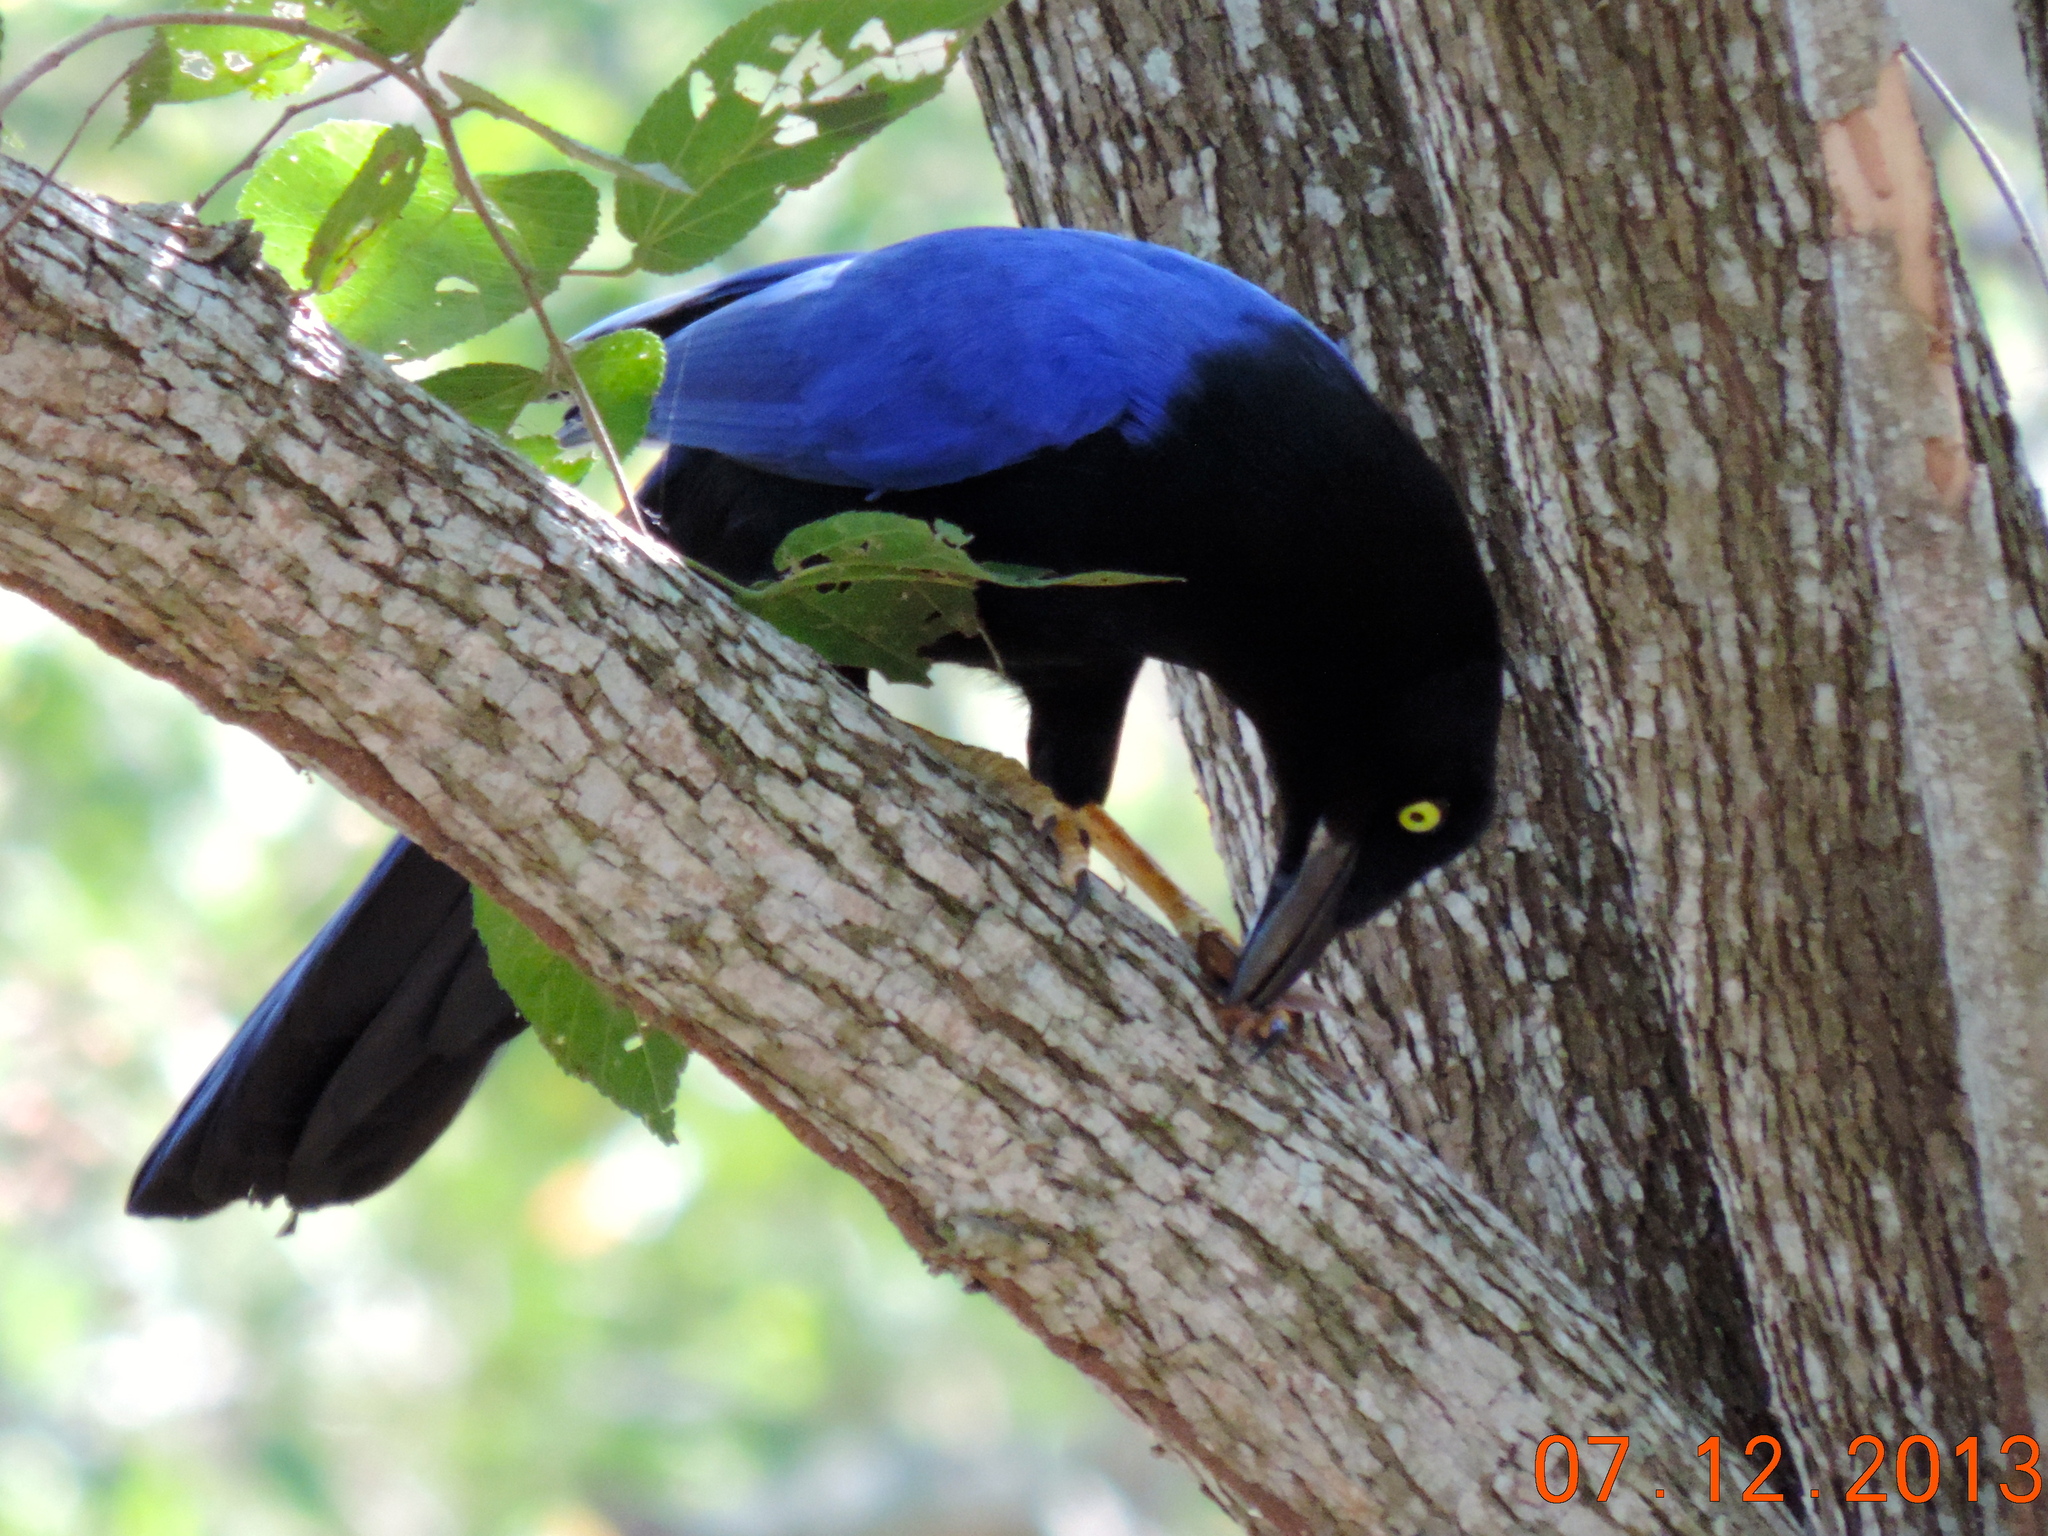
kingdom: Animalia
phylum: Chordata
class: Aves
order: Passeriformes
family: Corvidae
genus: Cyanocorax
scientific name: Cyanocorax beecheii
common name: Purplish-backed jay
